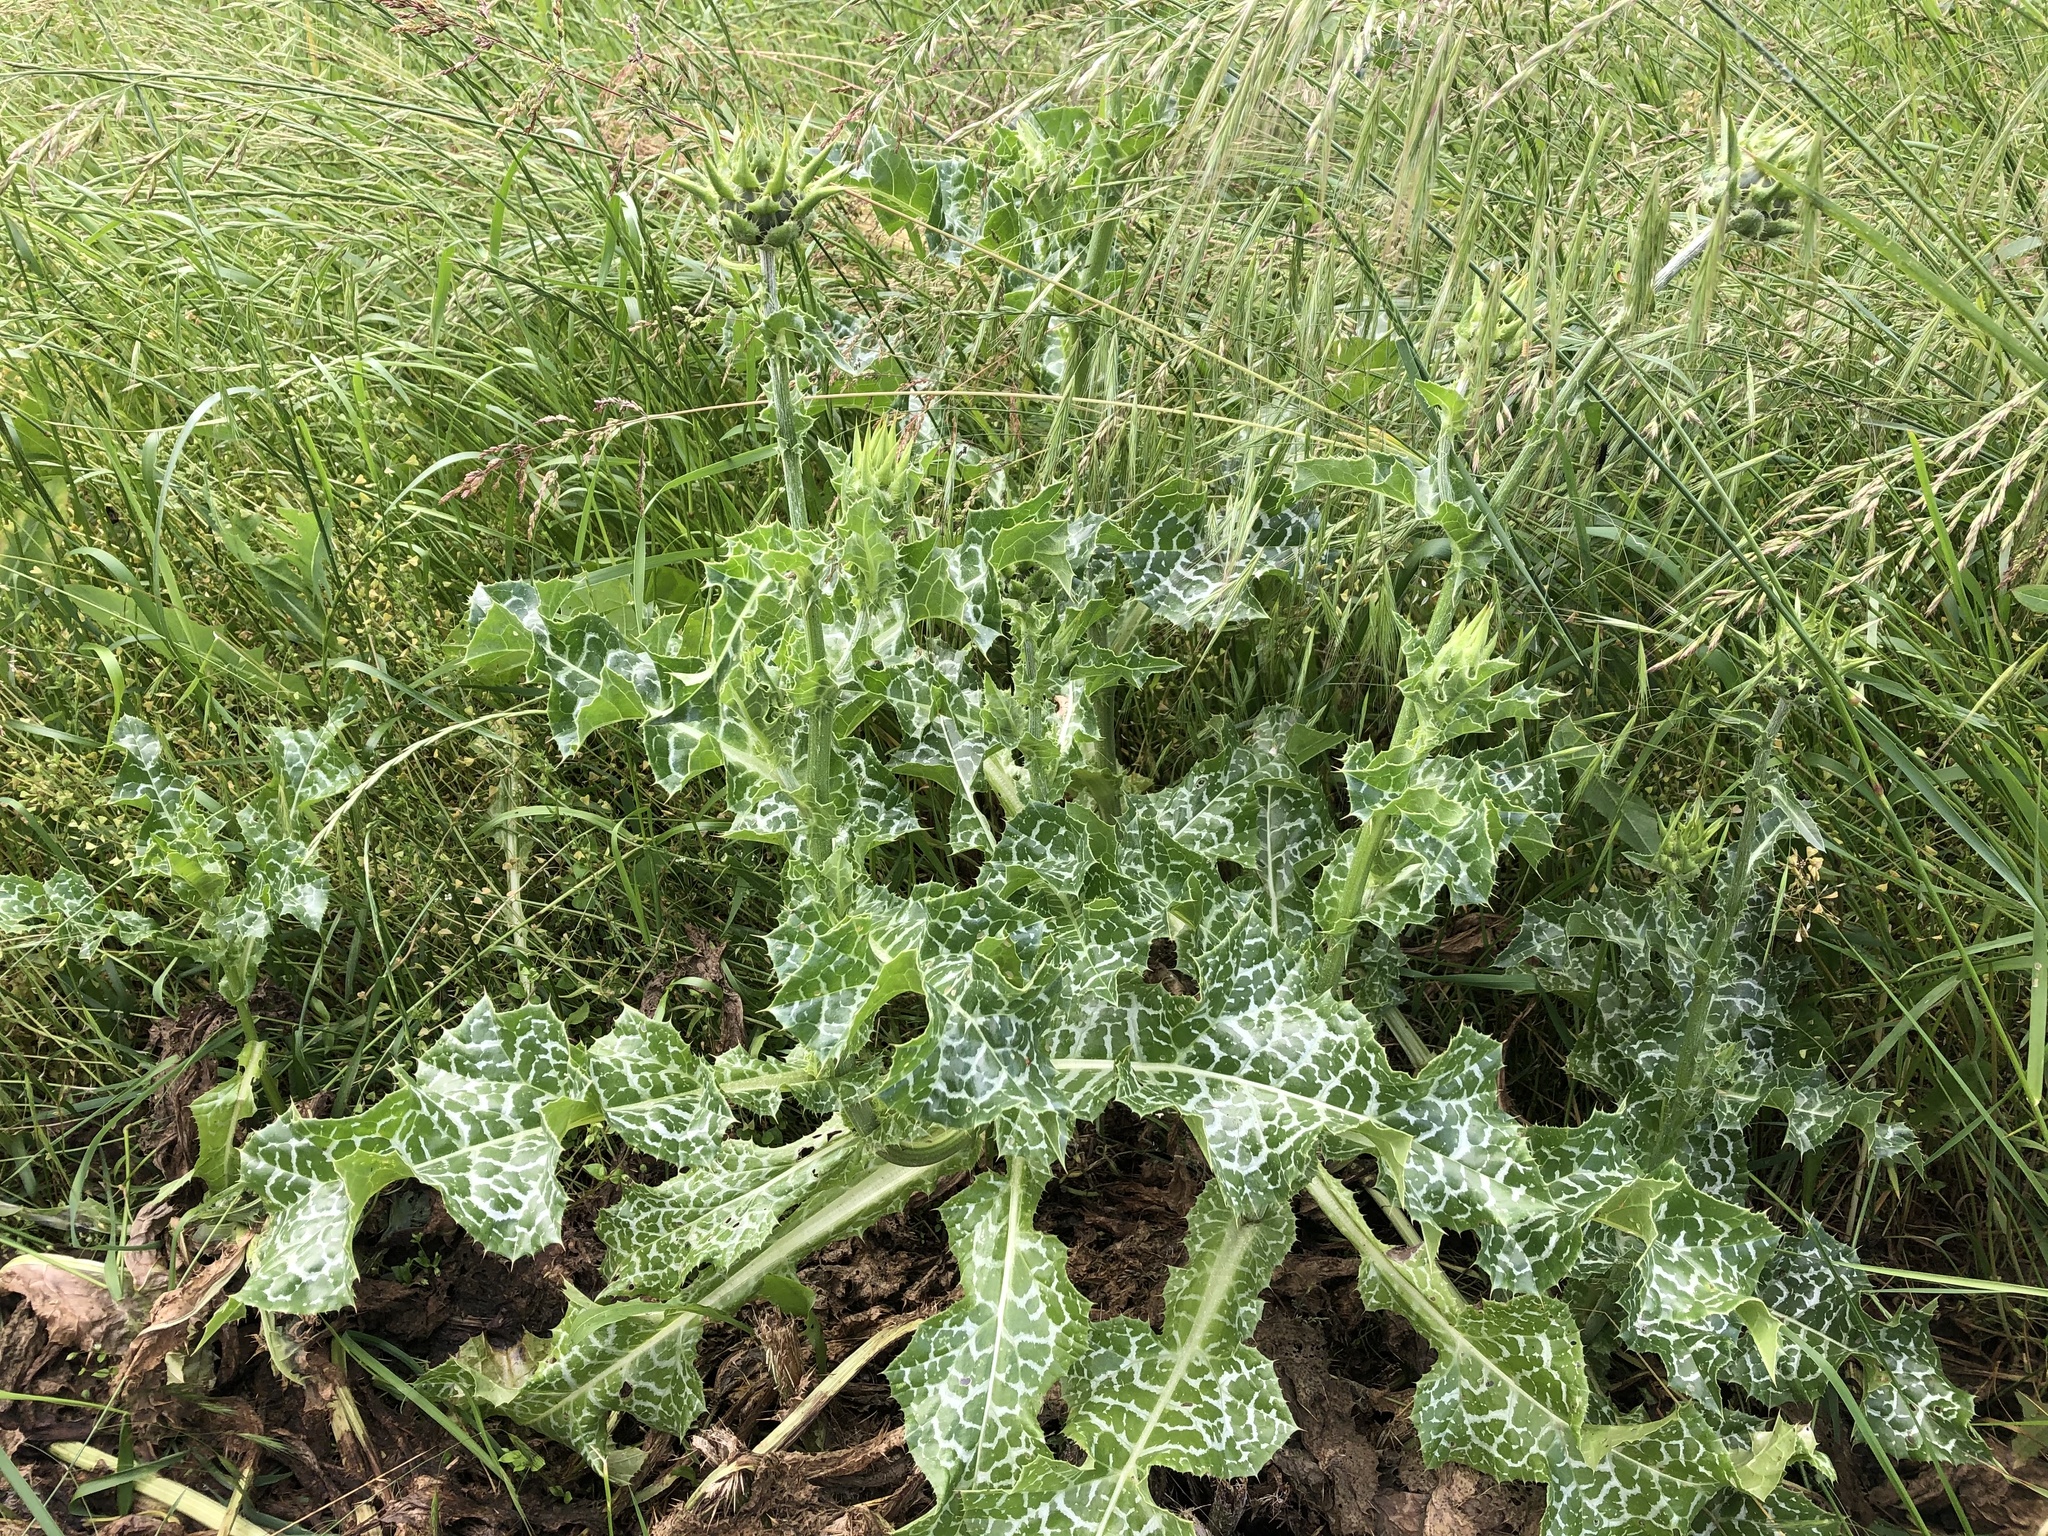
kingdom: Plantae
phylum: Tracheophyta
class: Magnoliopsida
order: Asterales
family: Asteraceae
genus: Silybum
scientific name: Silybum marianum
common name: Milk thistle
